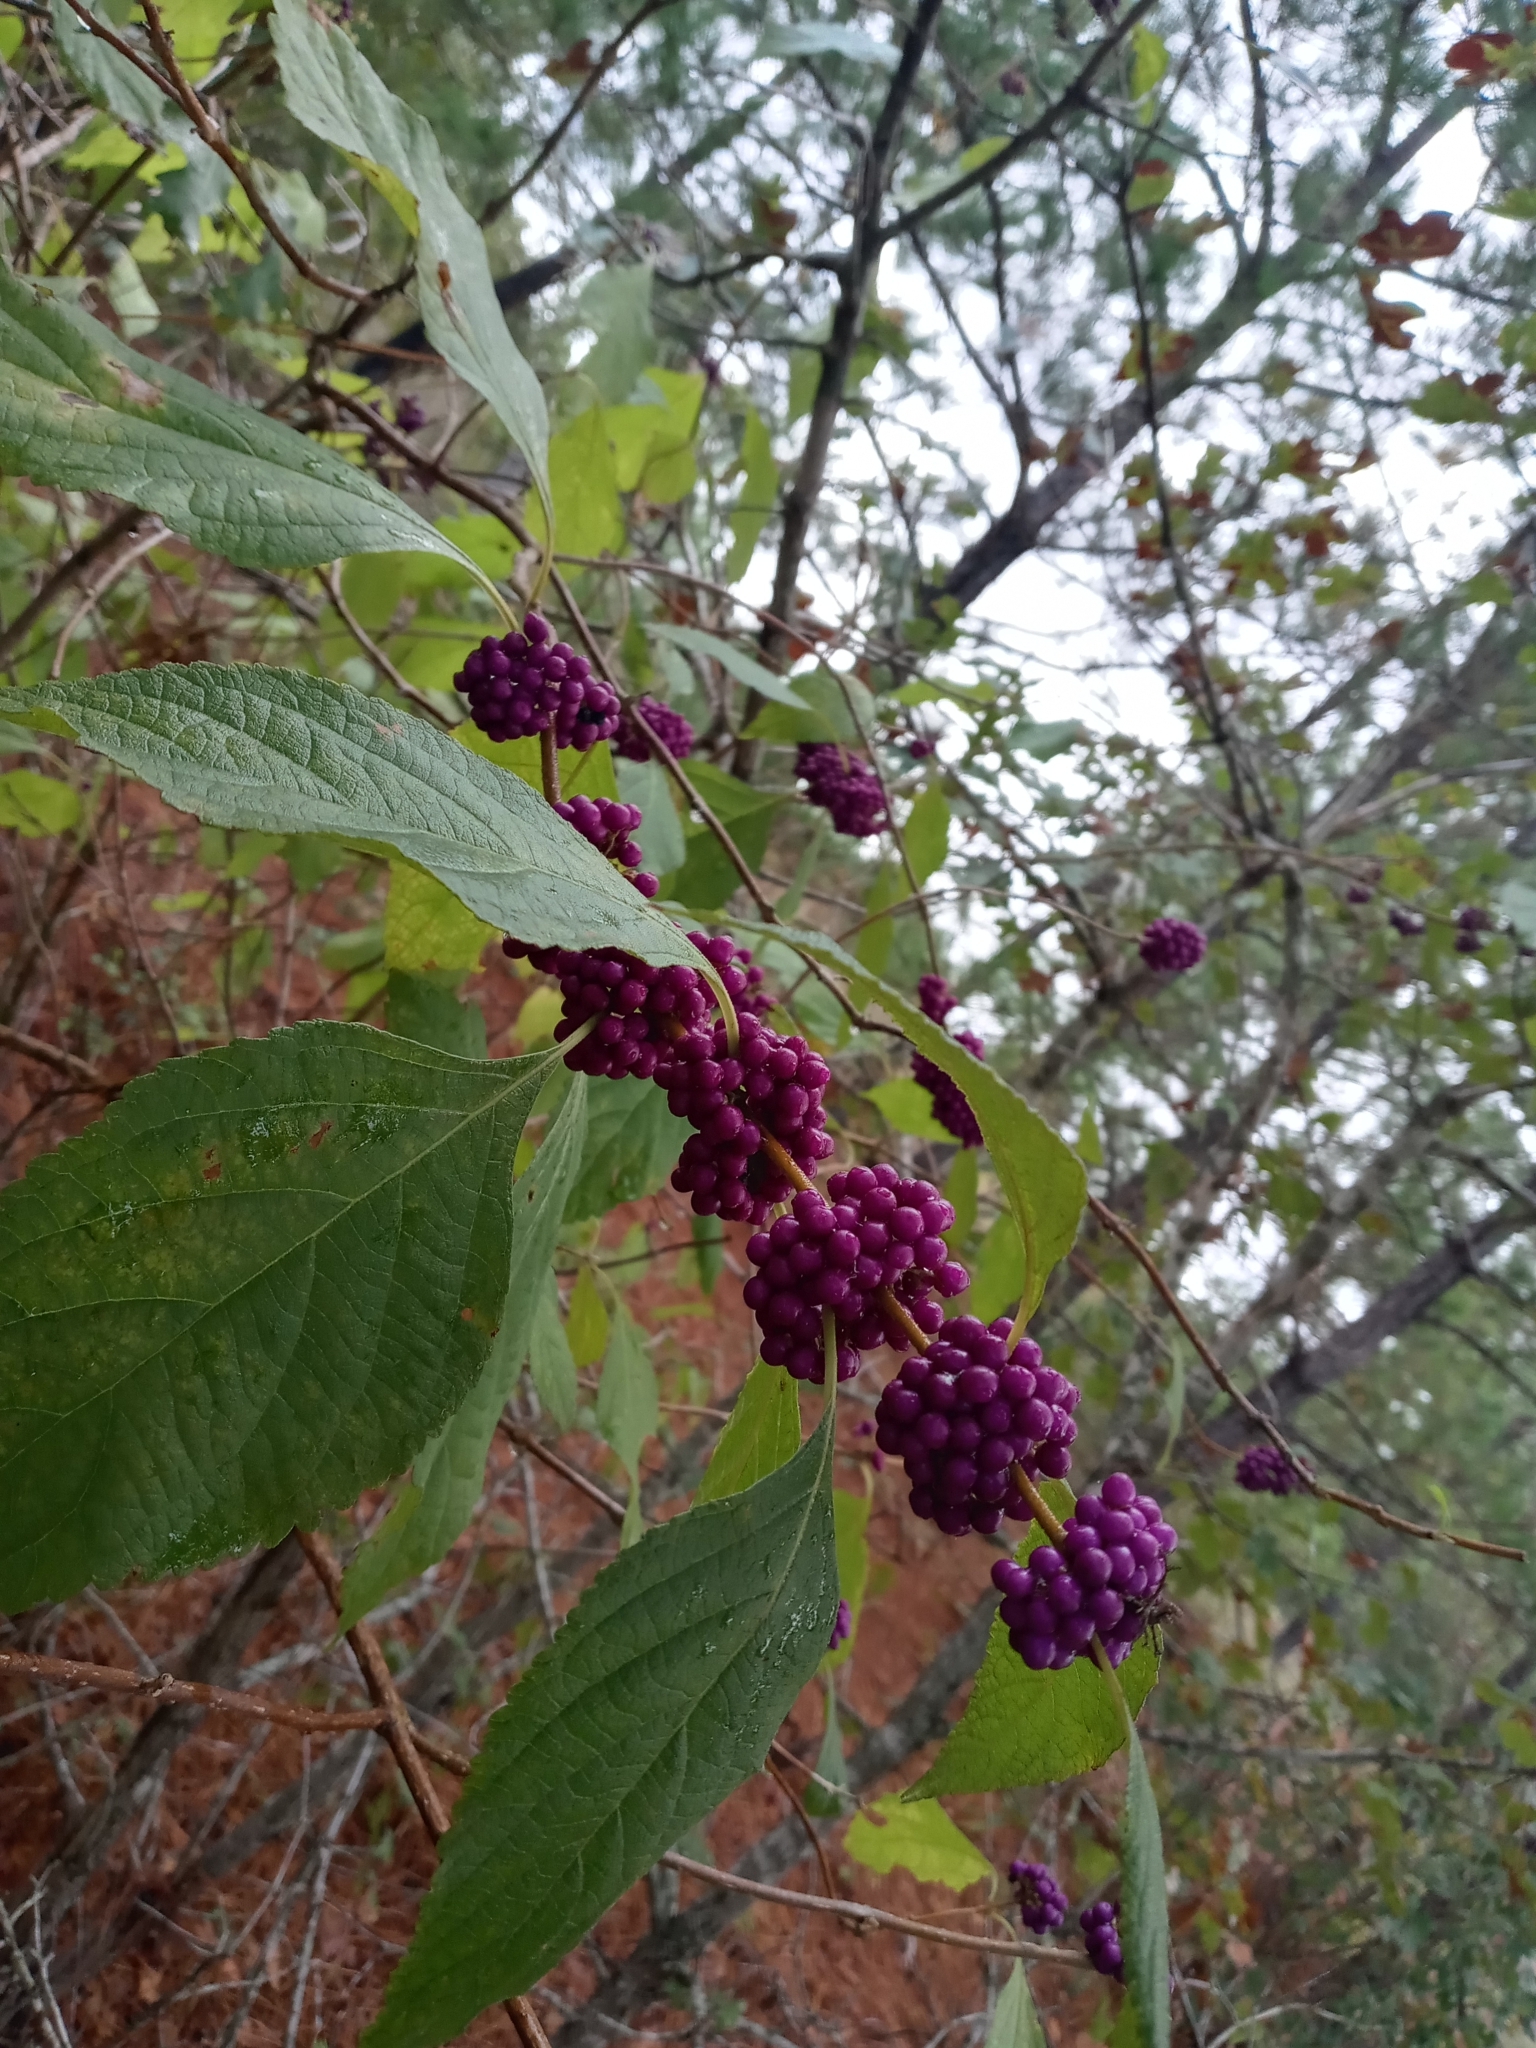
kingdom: Plantae
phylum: Tracheophyta
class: Magnoliopsida
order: Lamiales
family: Lamiaceae
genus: Callicarpa
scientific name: Callicarpa americana
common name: American beautyberry
